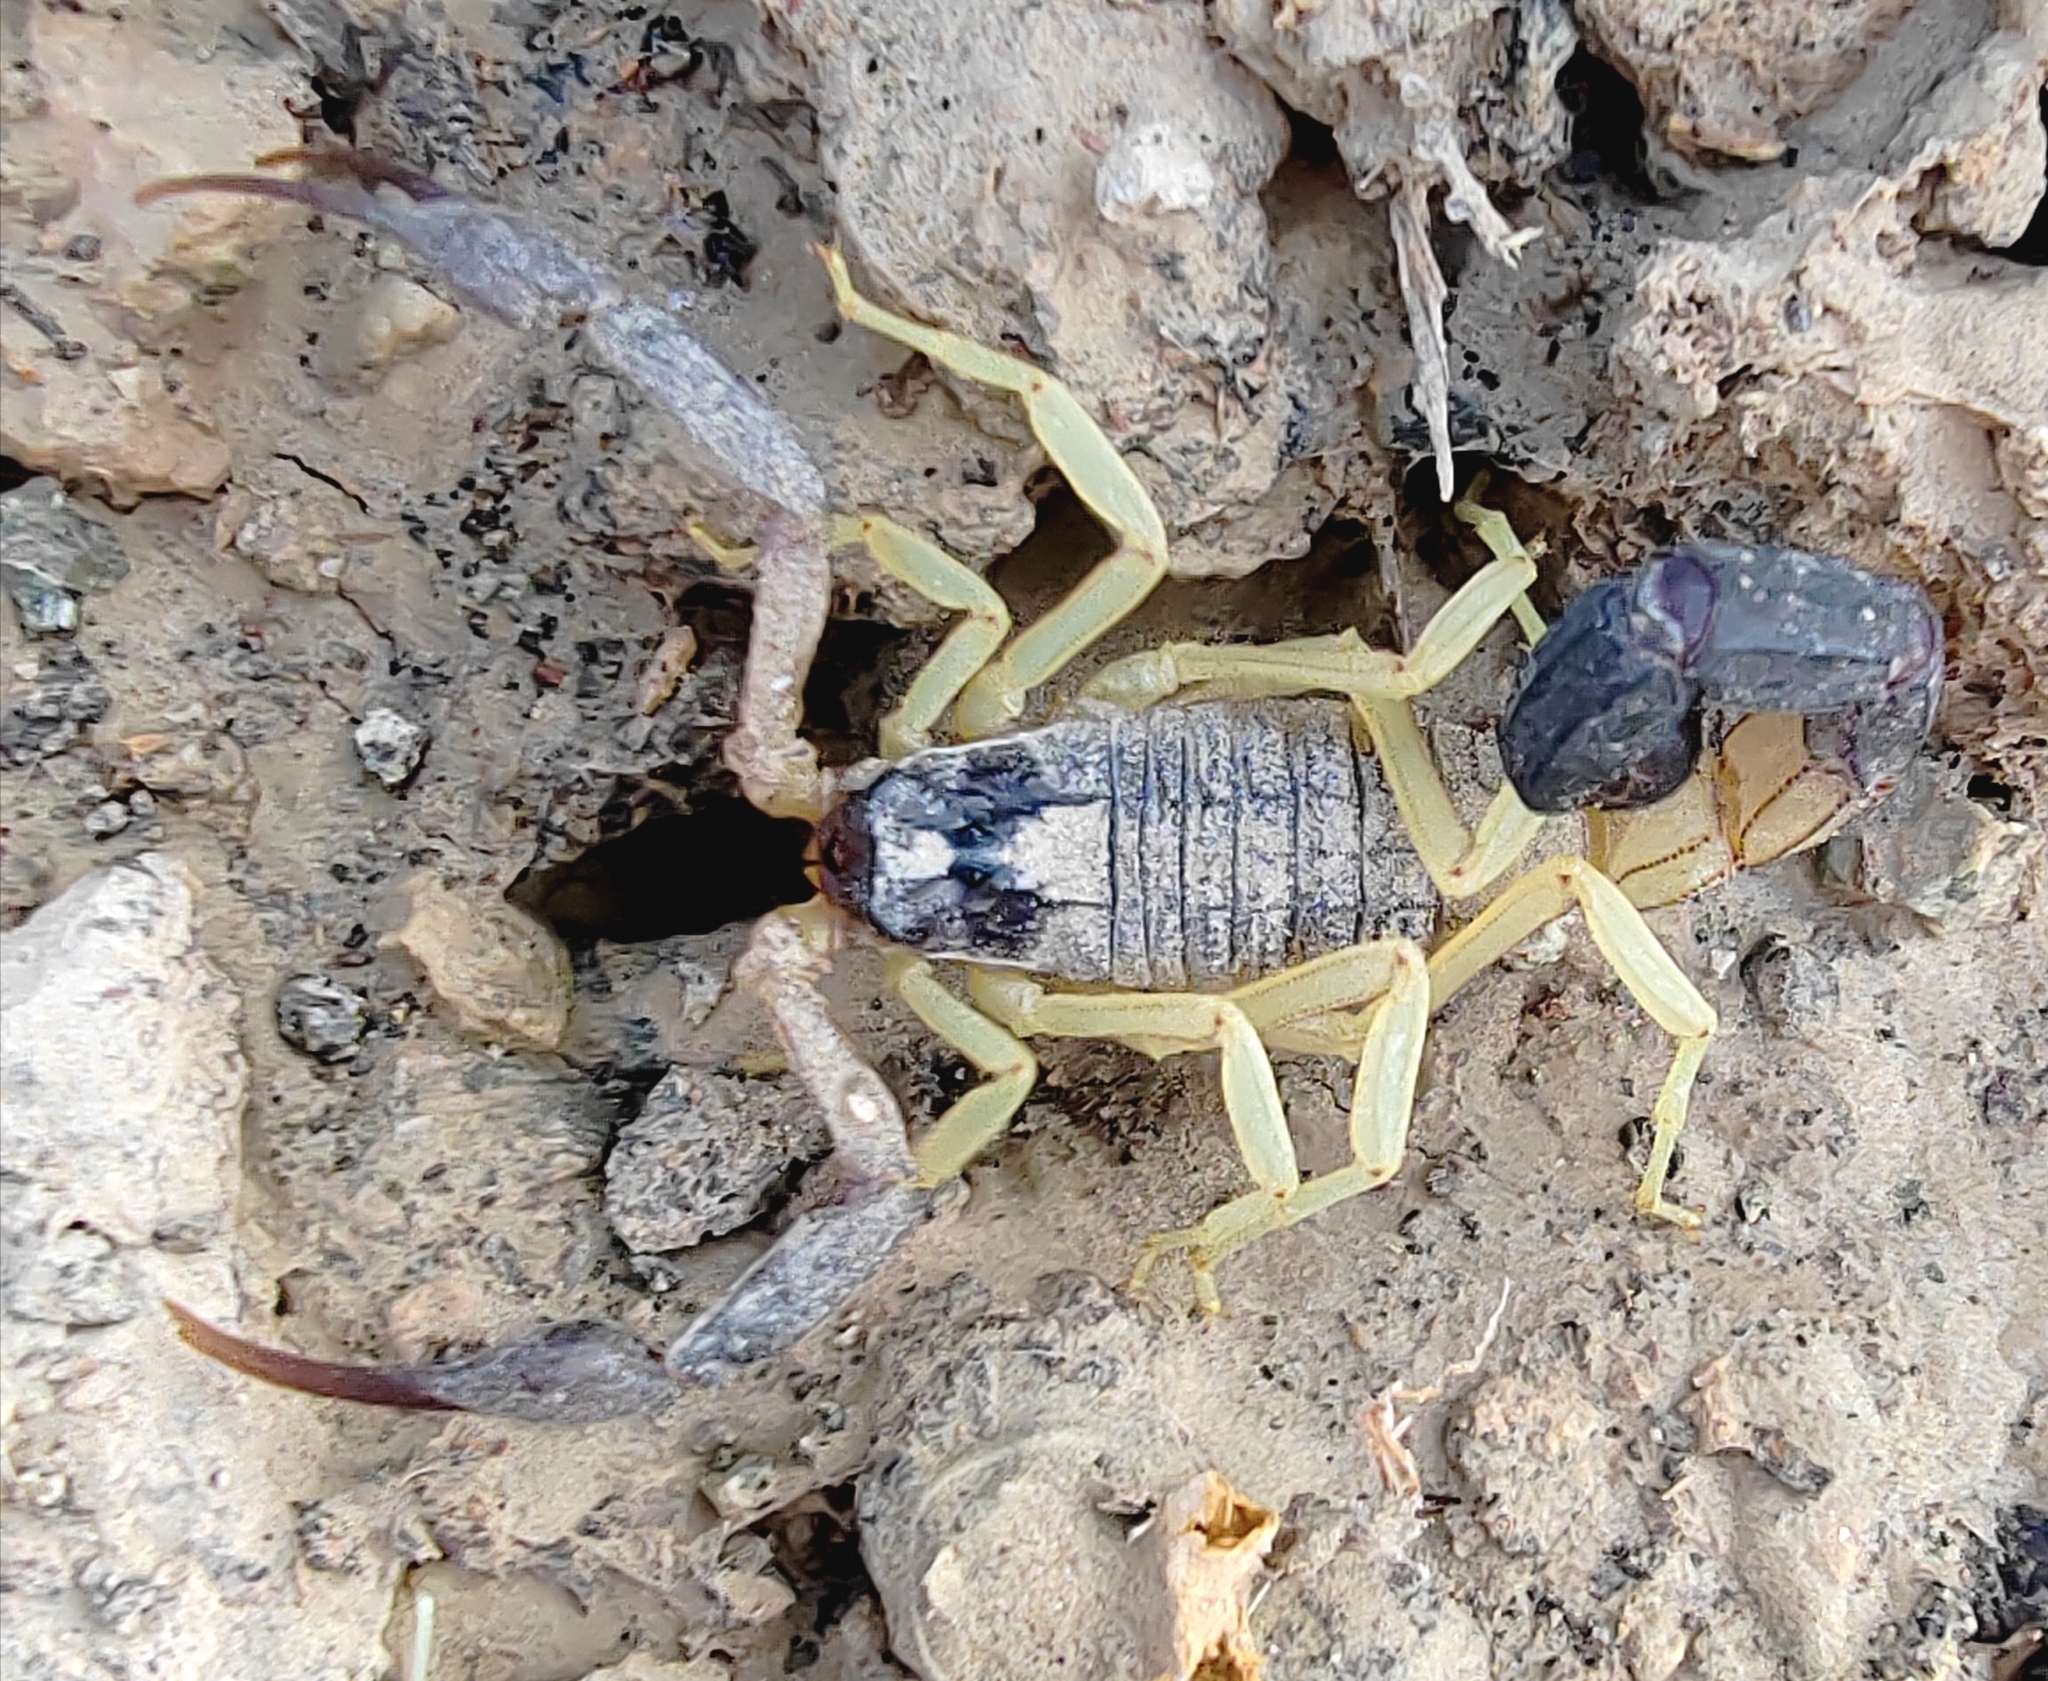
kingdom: Animalia
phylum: Arthropoda
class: Arachnida
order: Scorpiones
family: Buthidae
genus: Hottentotta
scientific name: Hottentotta jayakari
